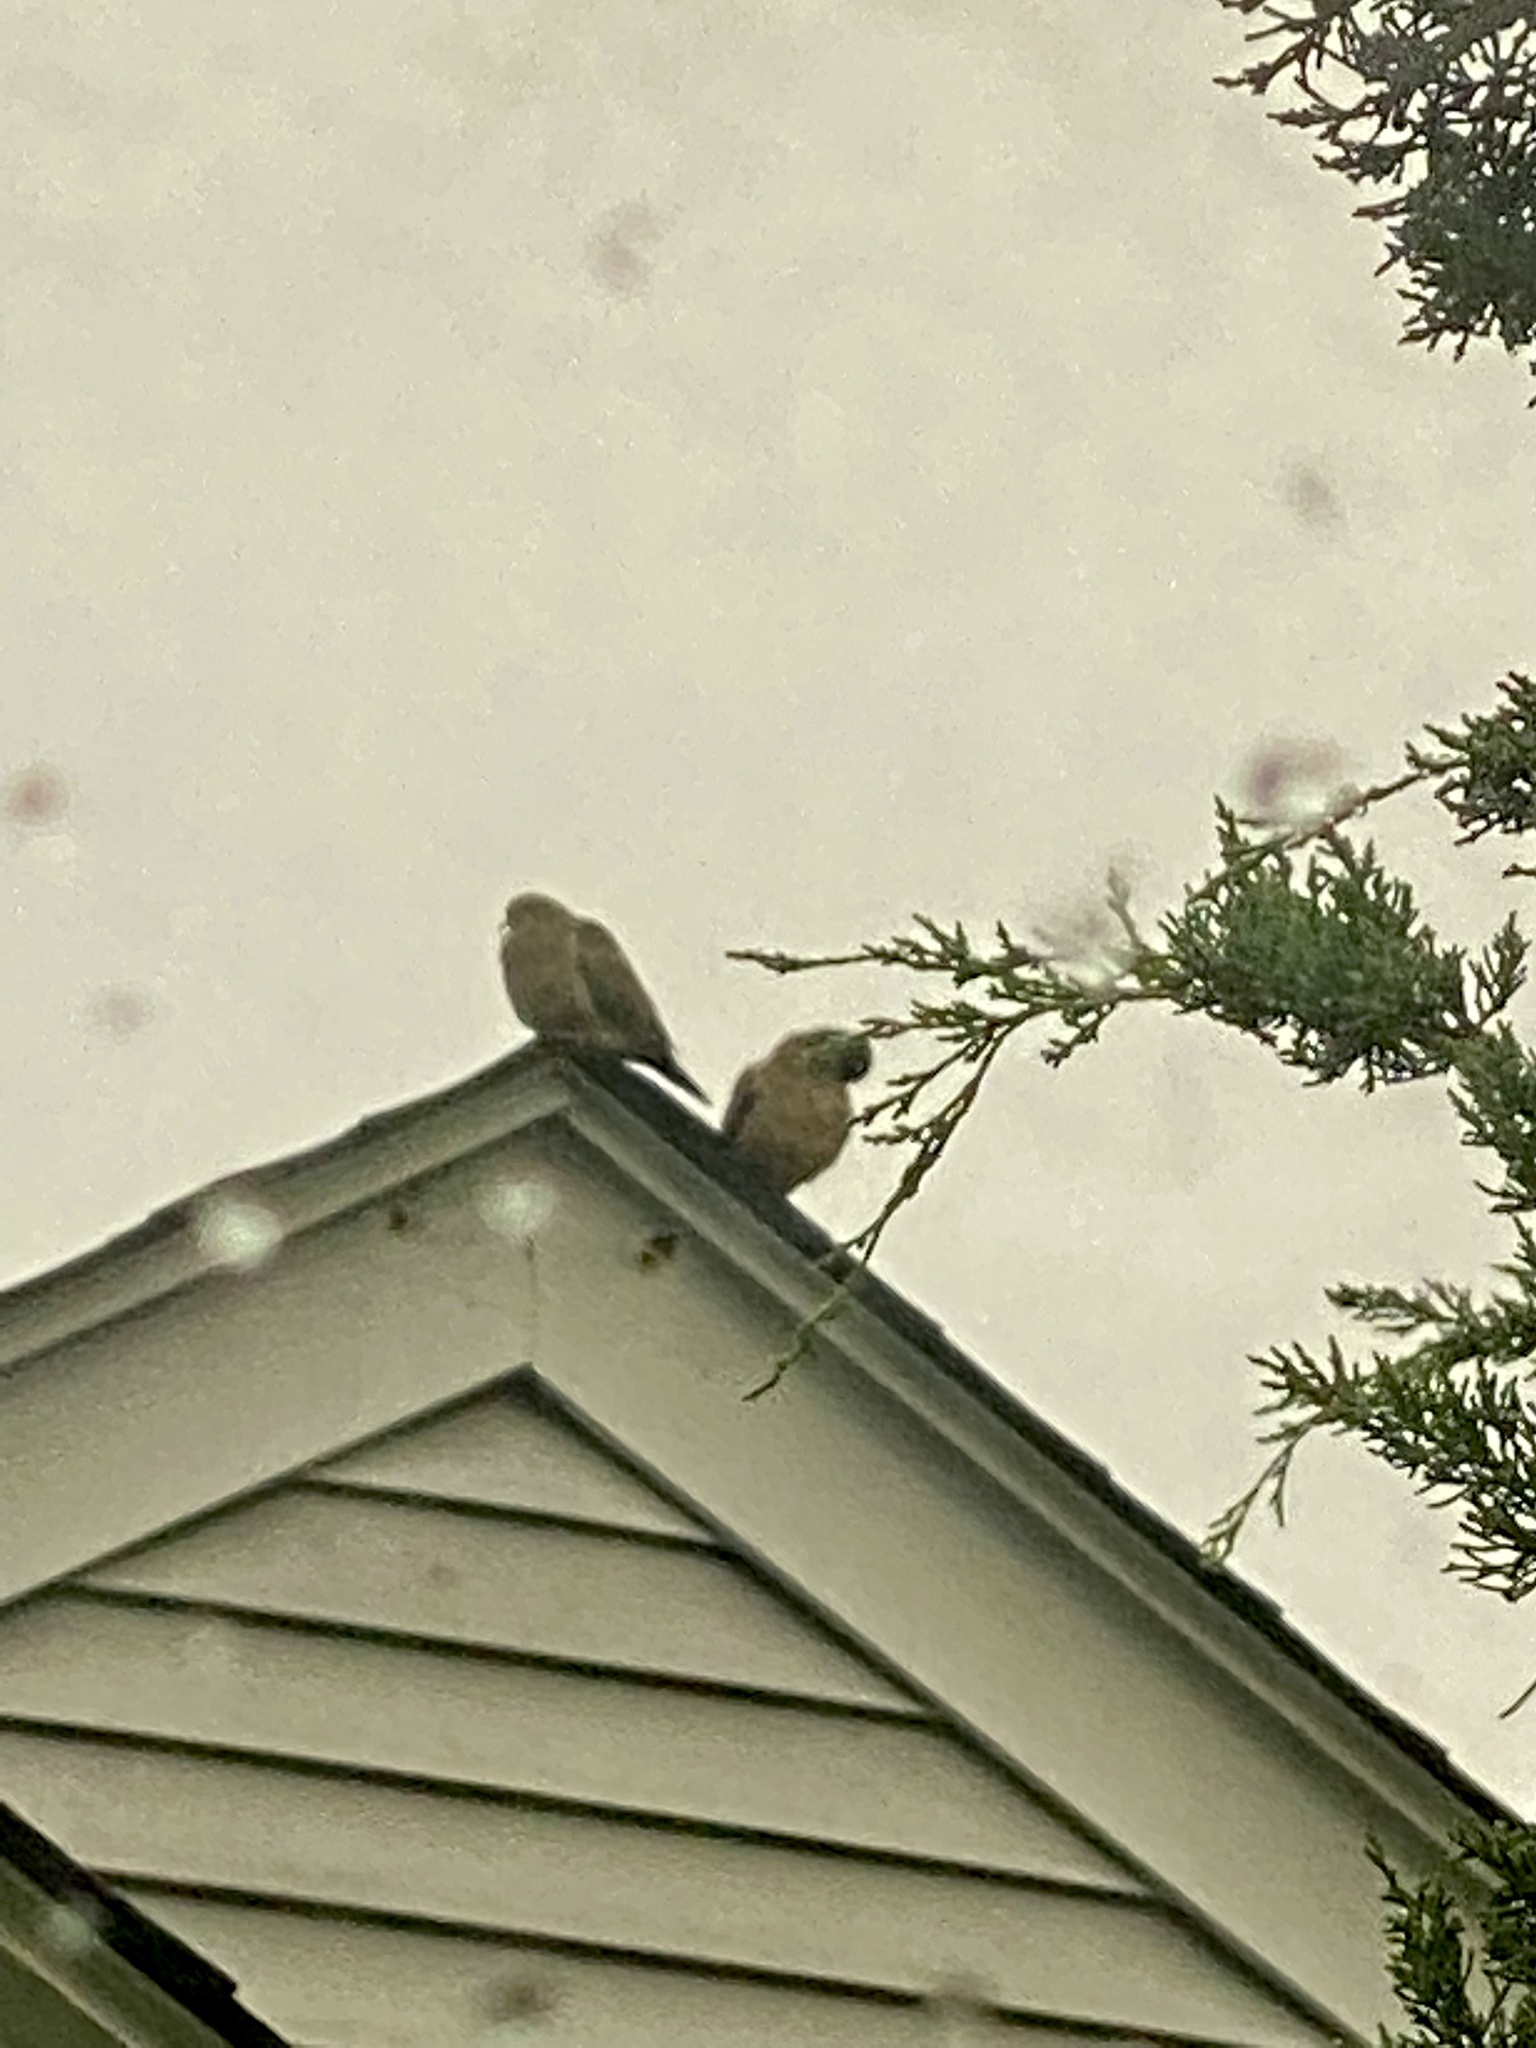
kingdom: Animalia
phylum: Chordata
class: Aves
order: Columbiformes
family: Columbidae
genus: Zenaida
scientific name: Zenaida macroura
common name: Mourning dove
